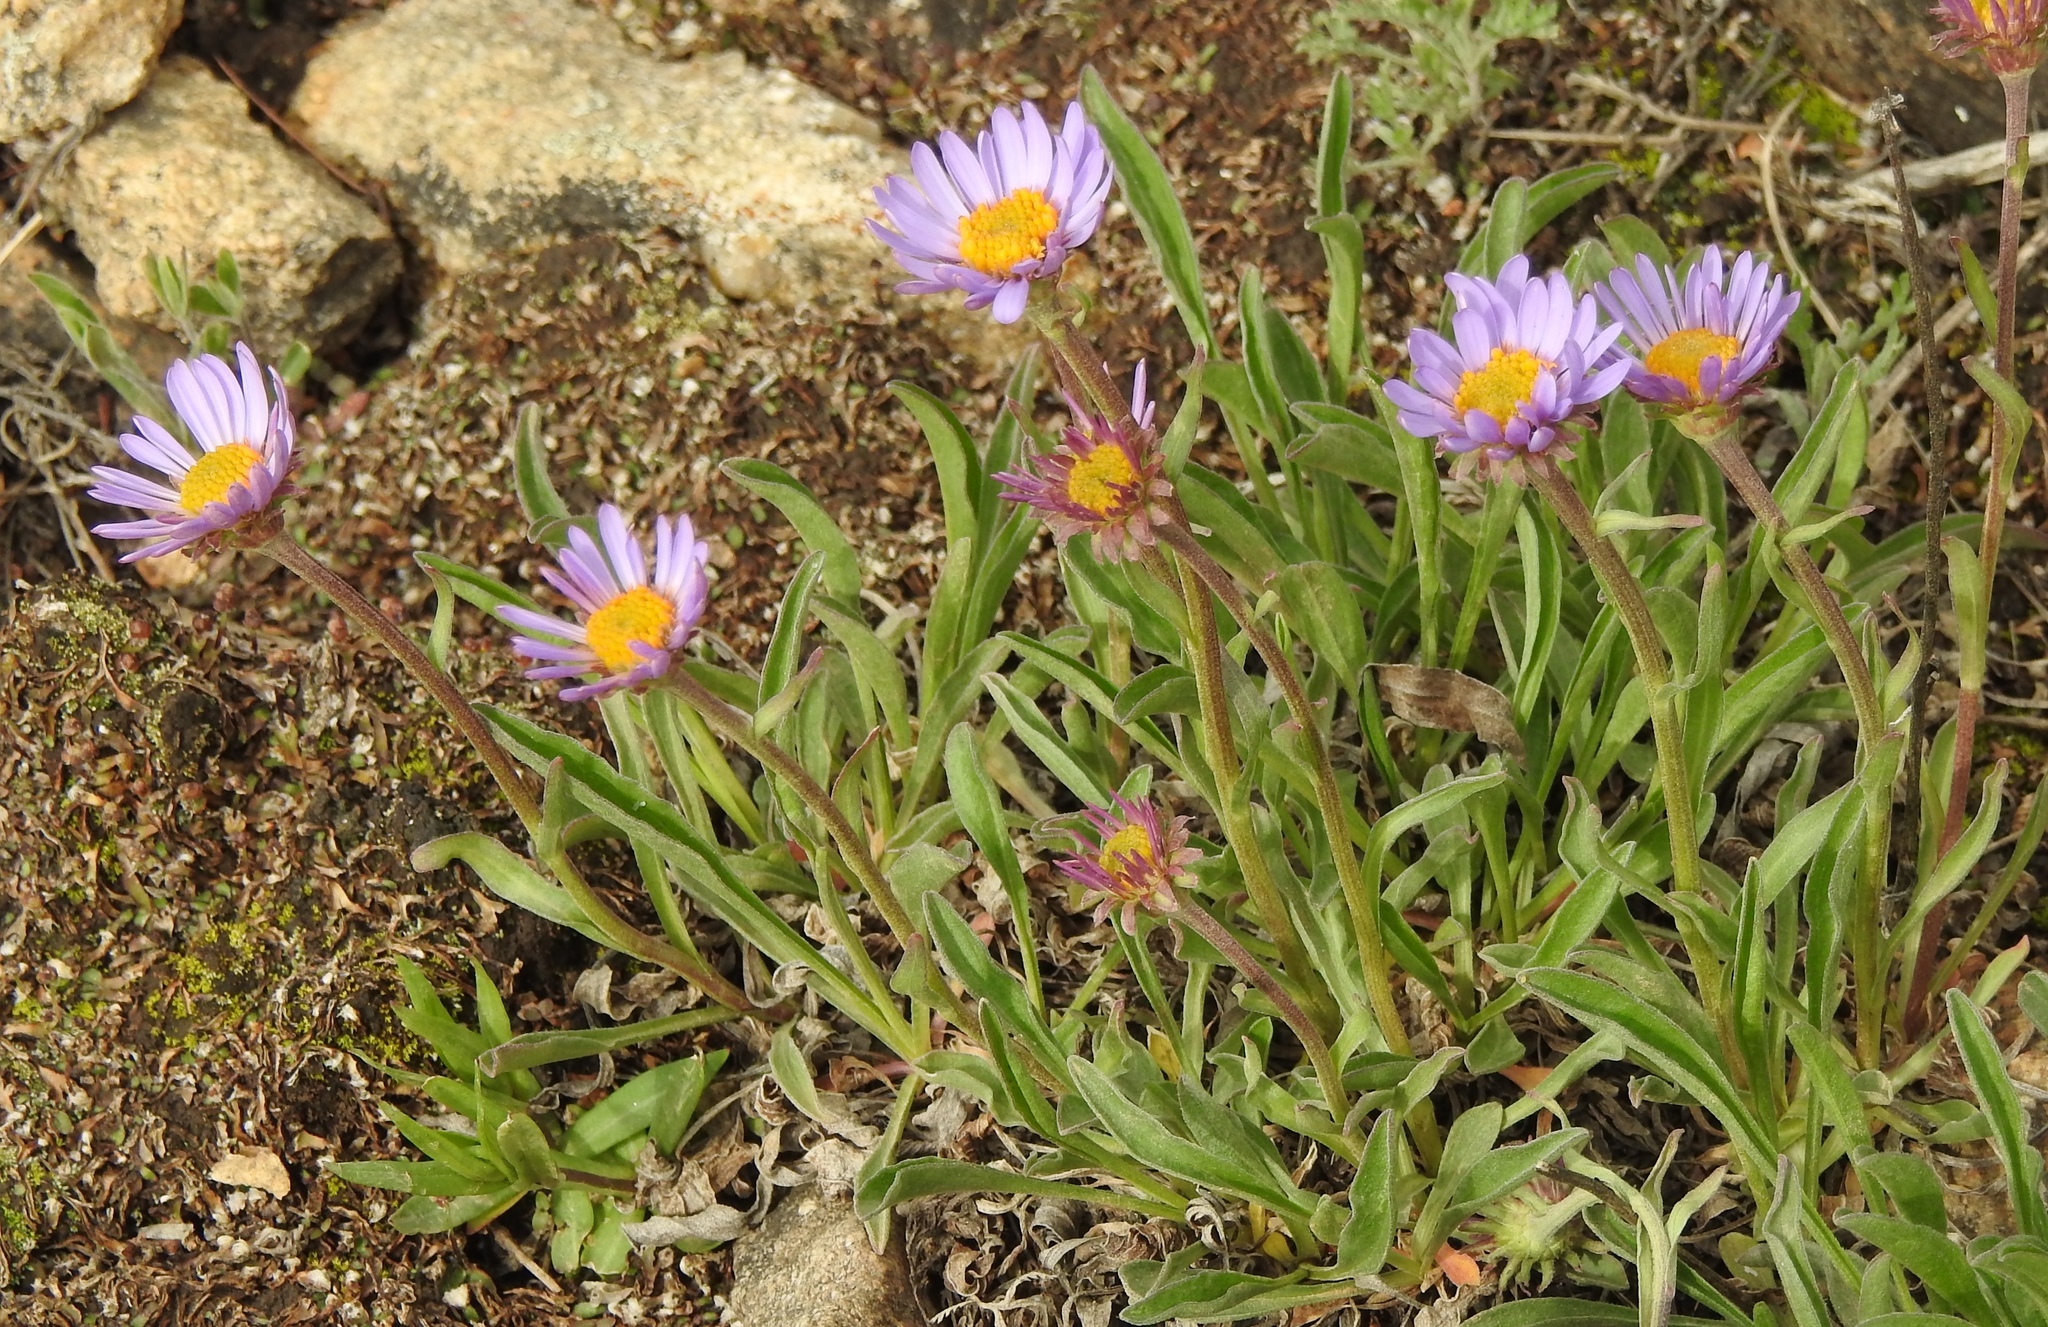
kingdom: Plantae
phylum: Tracheophyta
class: Magnoliopsida
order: Asterales
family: Asteraceae
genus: Aster
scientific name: Aster alpinus
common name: Alpine aster
